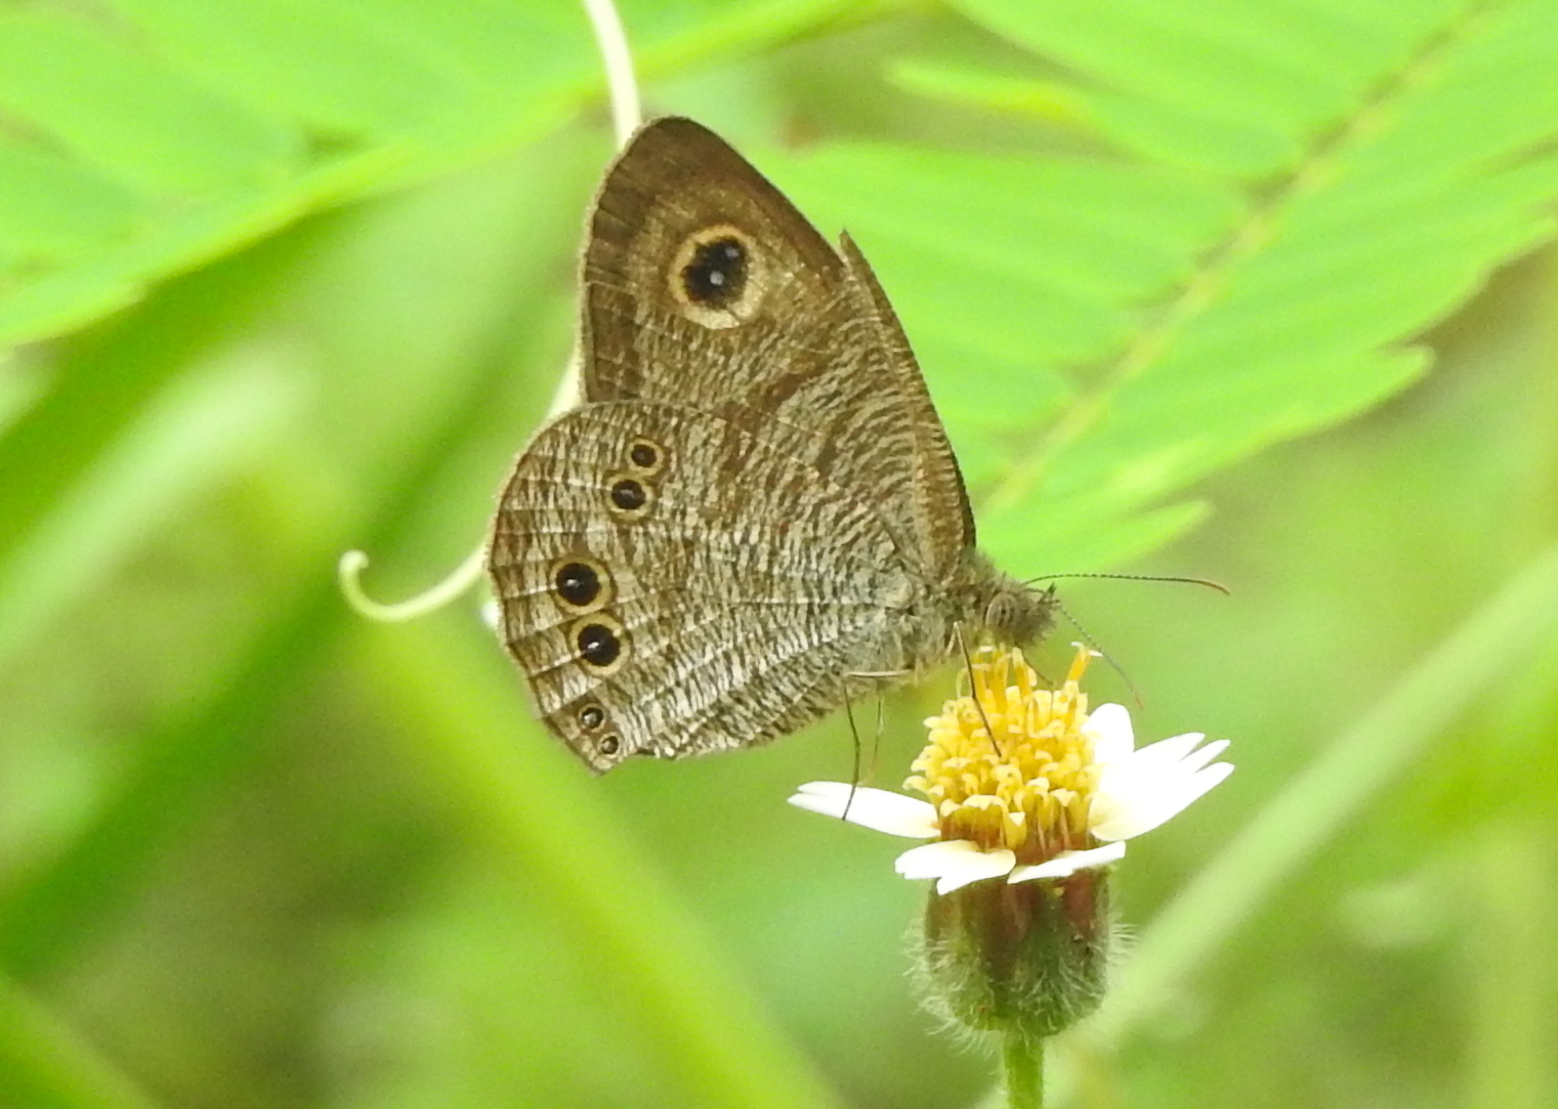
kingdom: Animalia
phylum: Arthropoda
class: Insecta
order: Lepidoptera
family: Nymphalidae
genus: Ypthima
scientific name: Ypthima baldus
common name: Common five-ring
